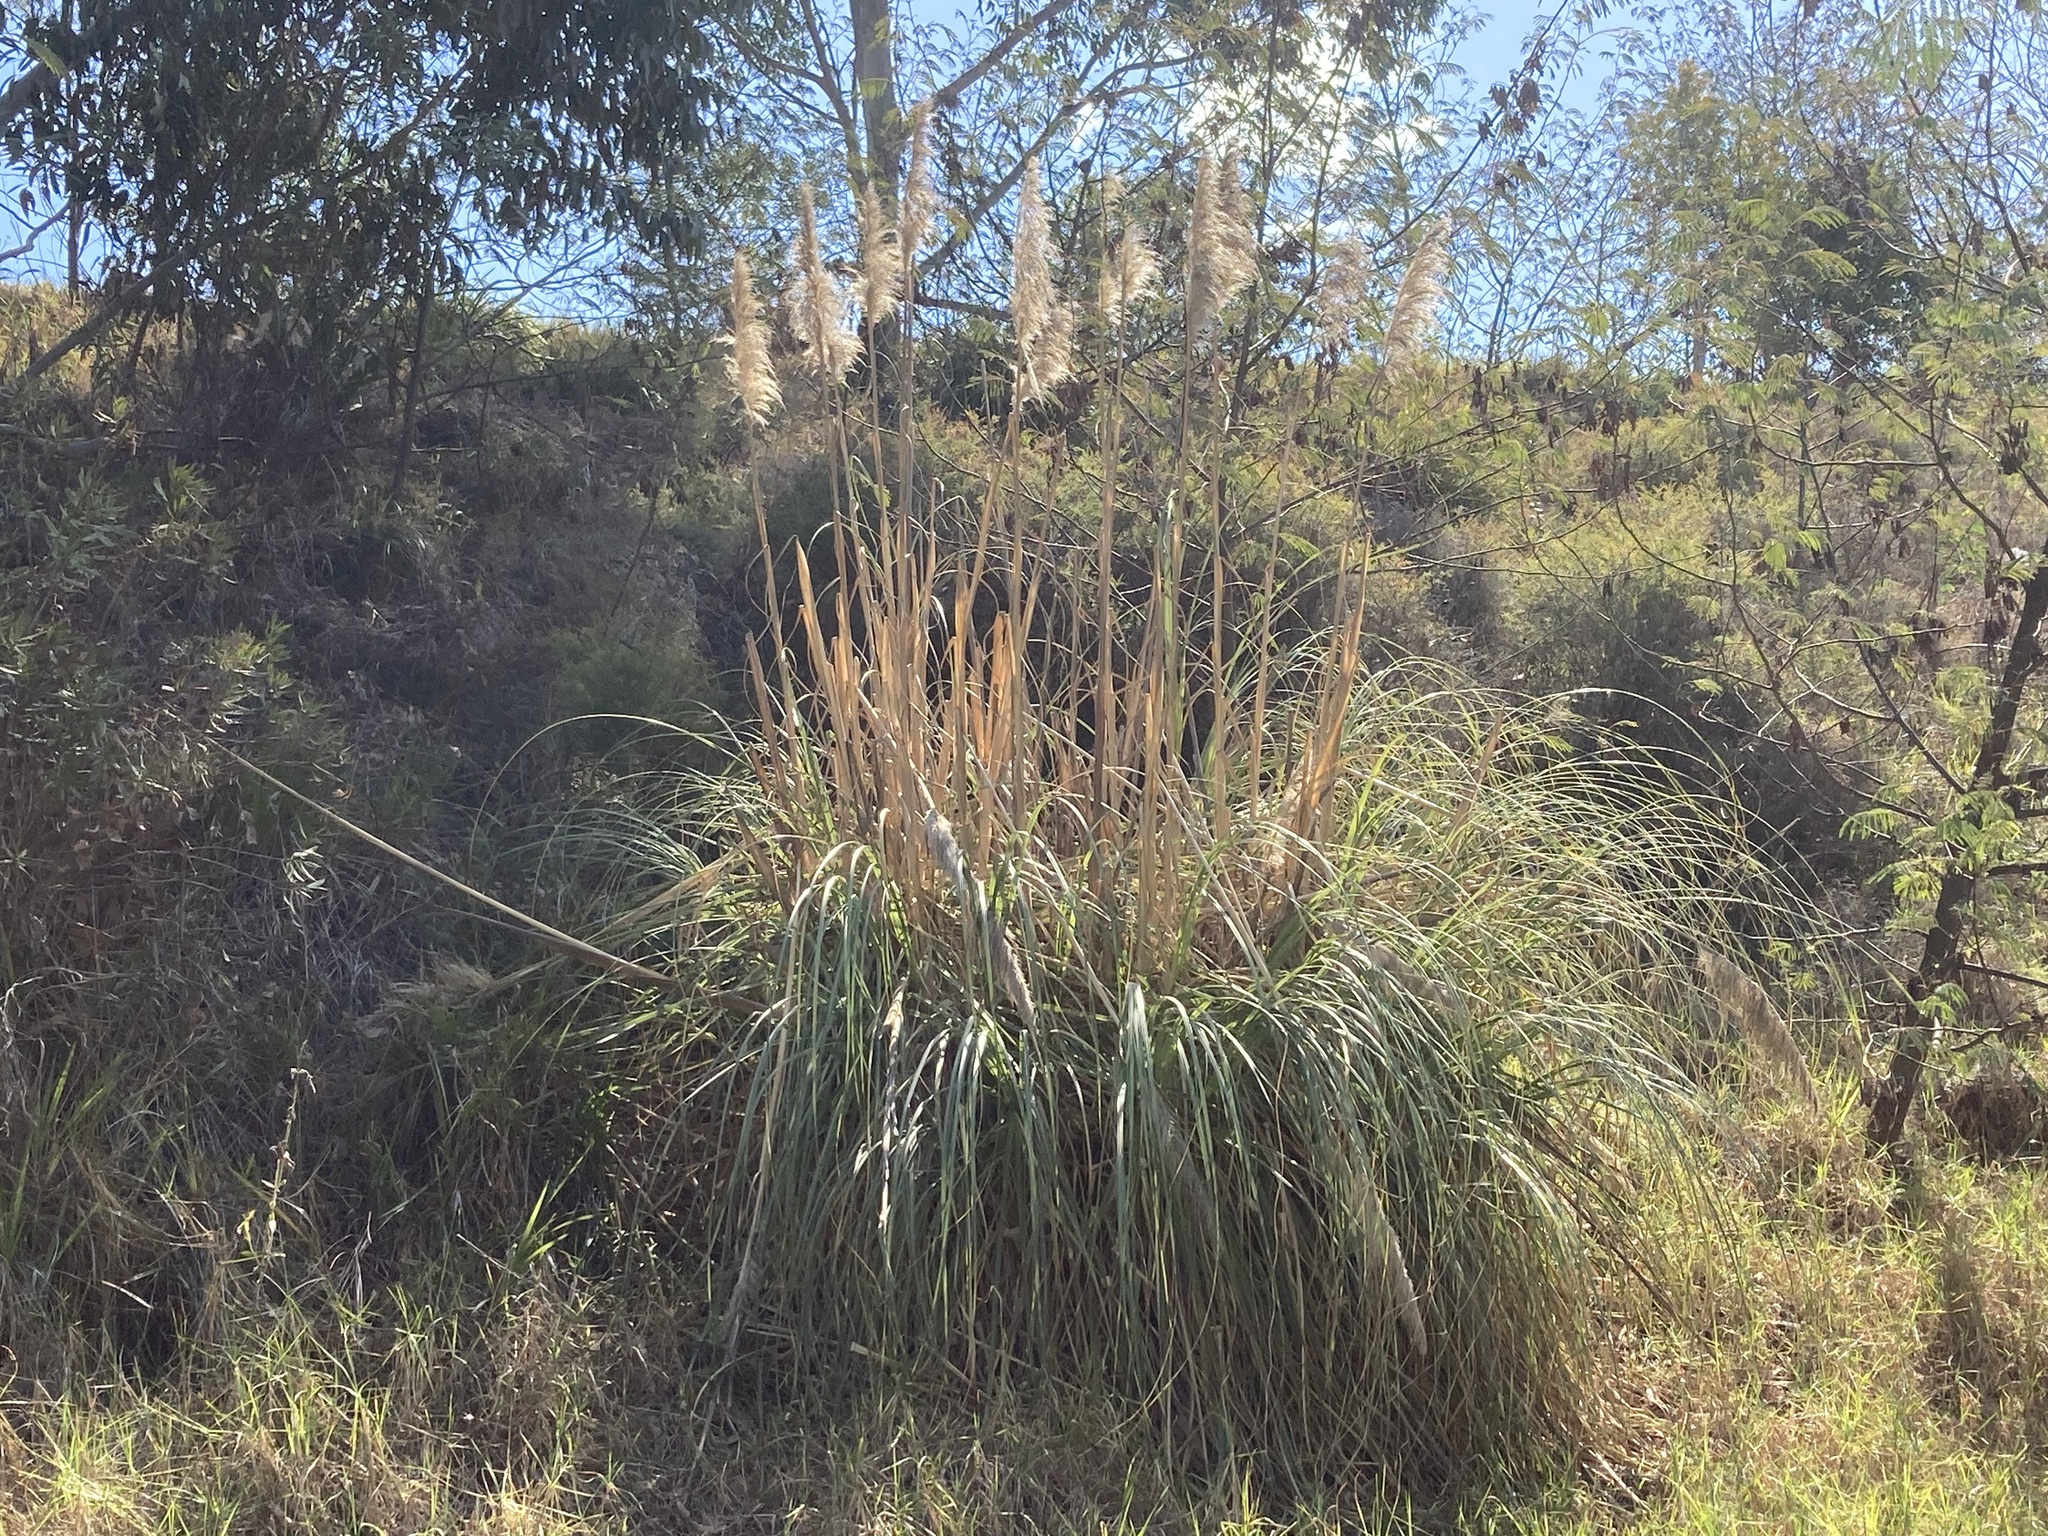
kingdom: Plantae
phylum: Tracheophyta
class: Liliopsida
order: Poales
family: Poaceae
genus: Cortaderia
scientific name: Cortaderia selloana
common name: Uruguayan pampas grass
